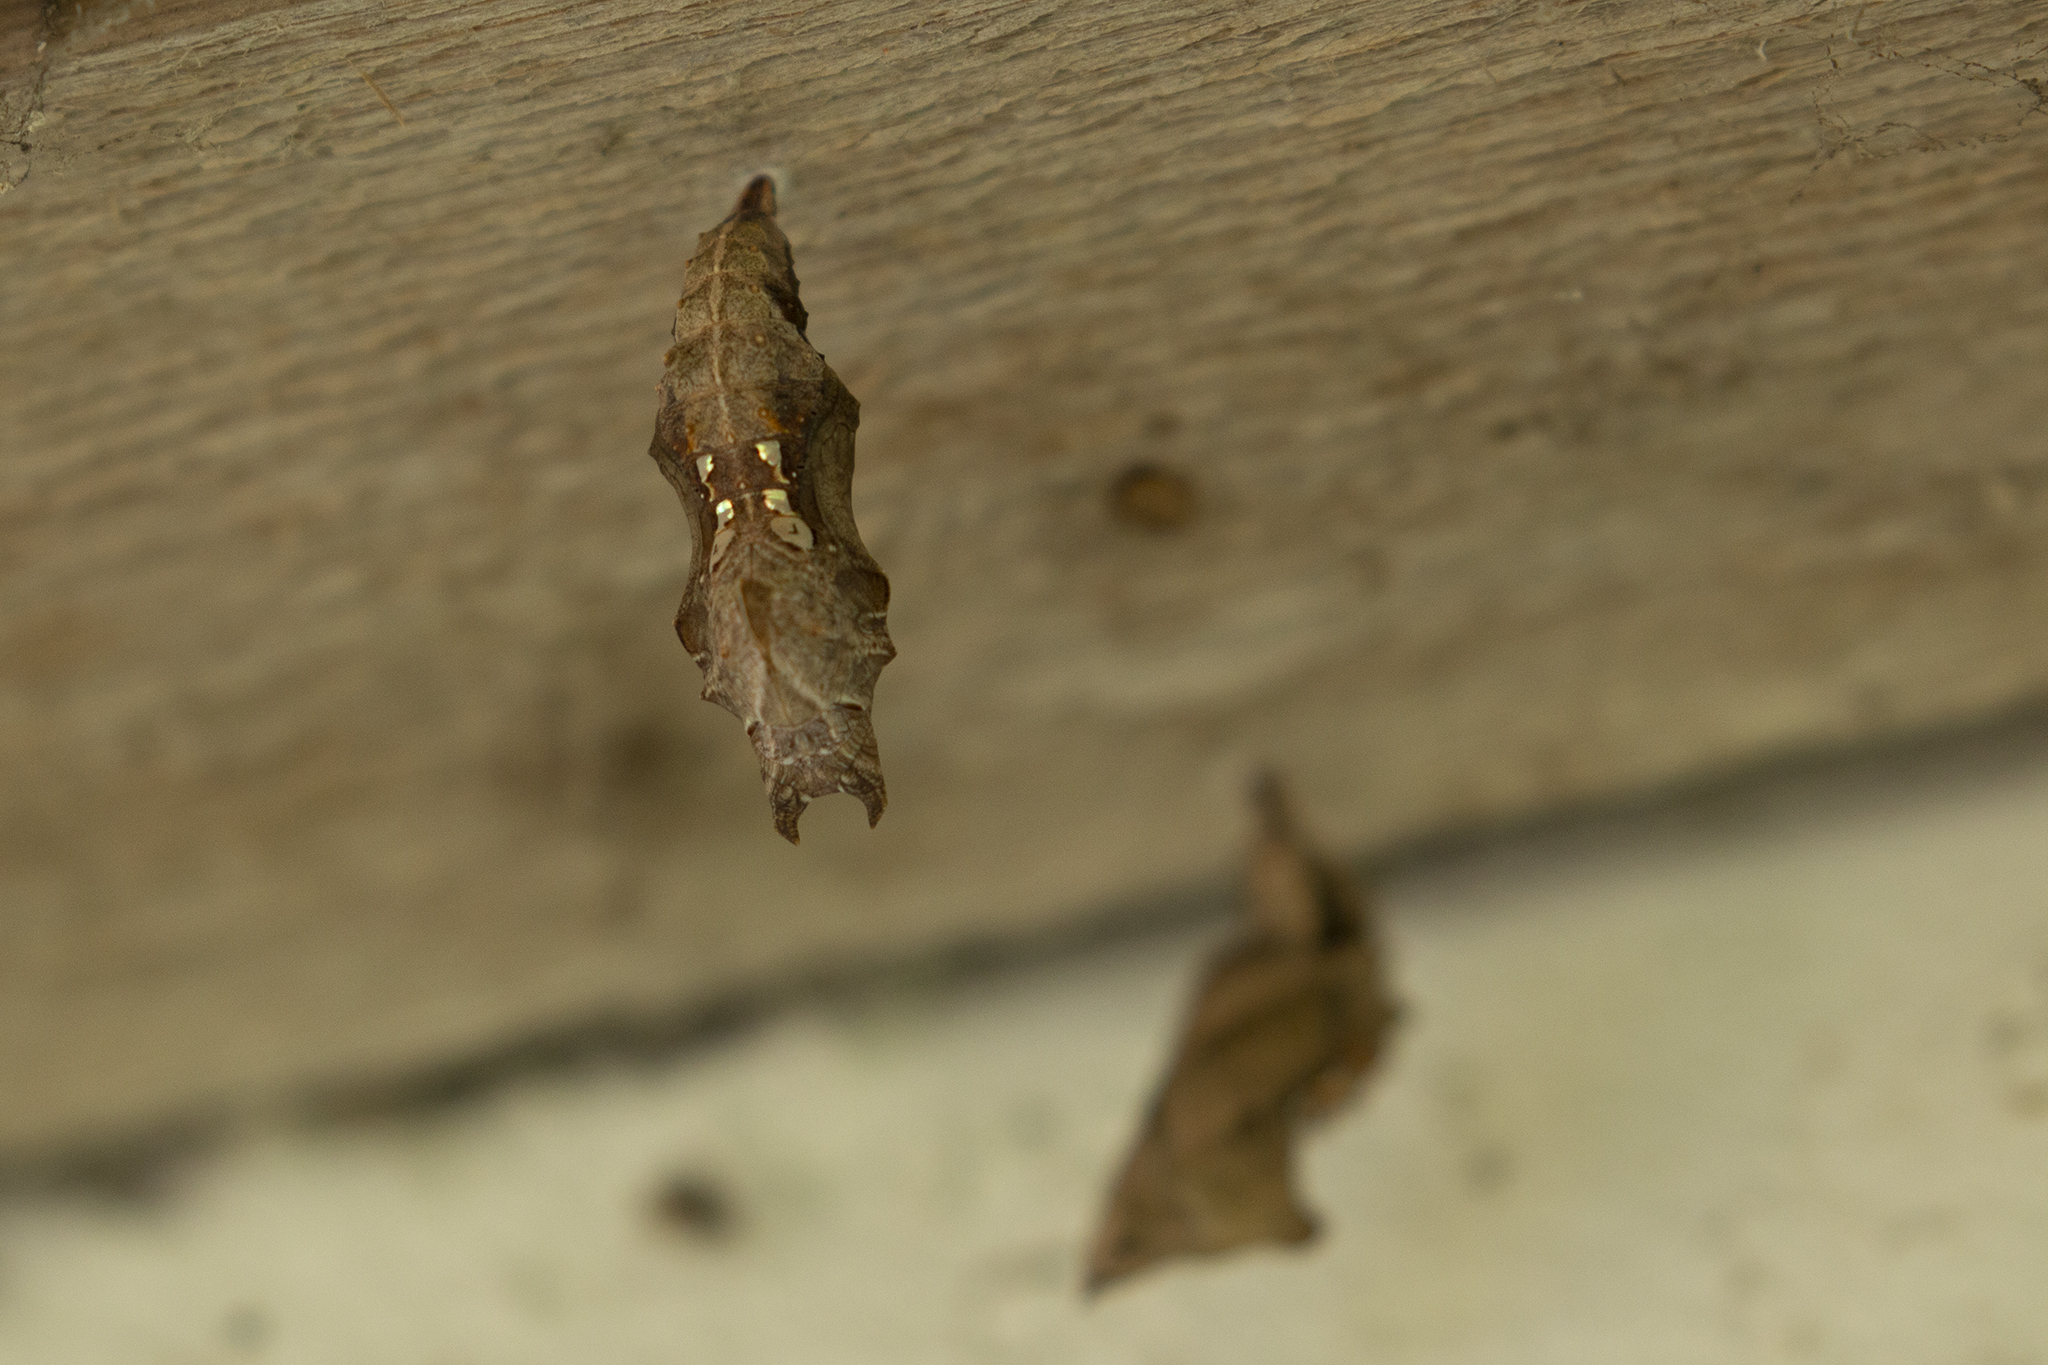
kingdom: Animalia
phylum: Arthropoda
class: Insecta
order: Lepidoptera
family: Nymphalidae
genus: Polygonia
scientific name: Polygonia c-album
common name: Comma
